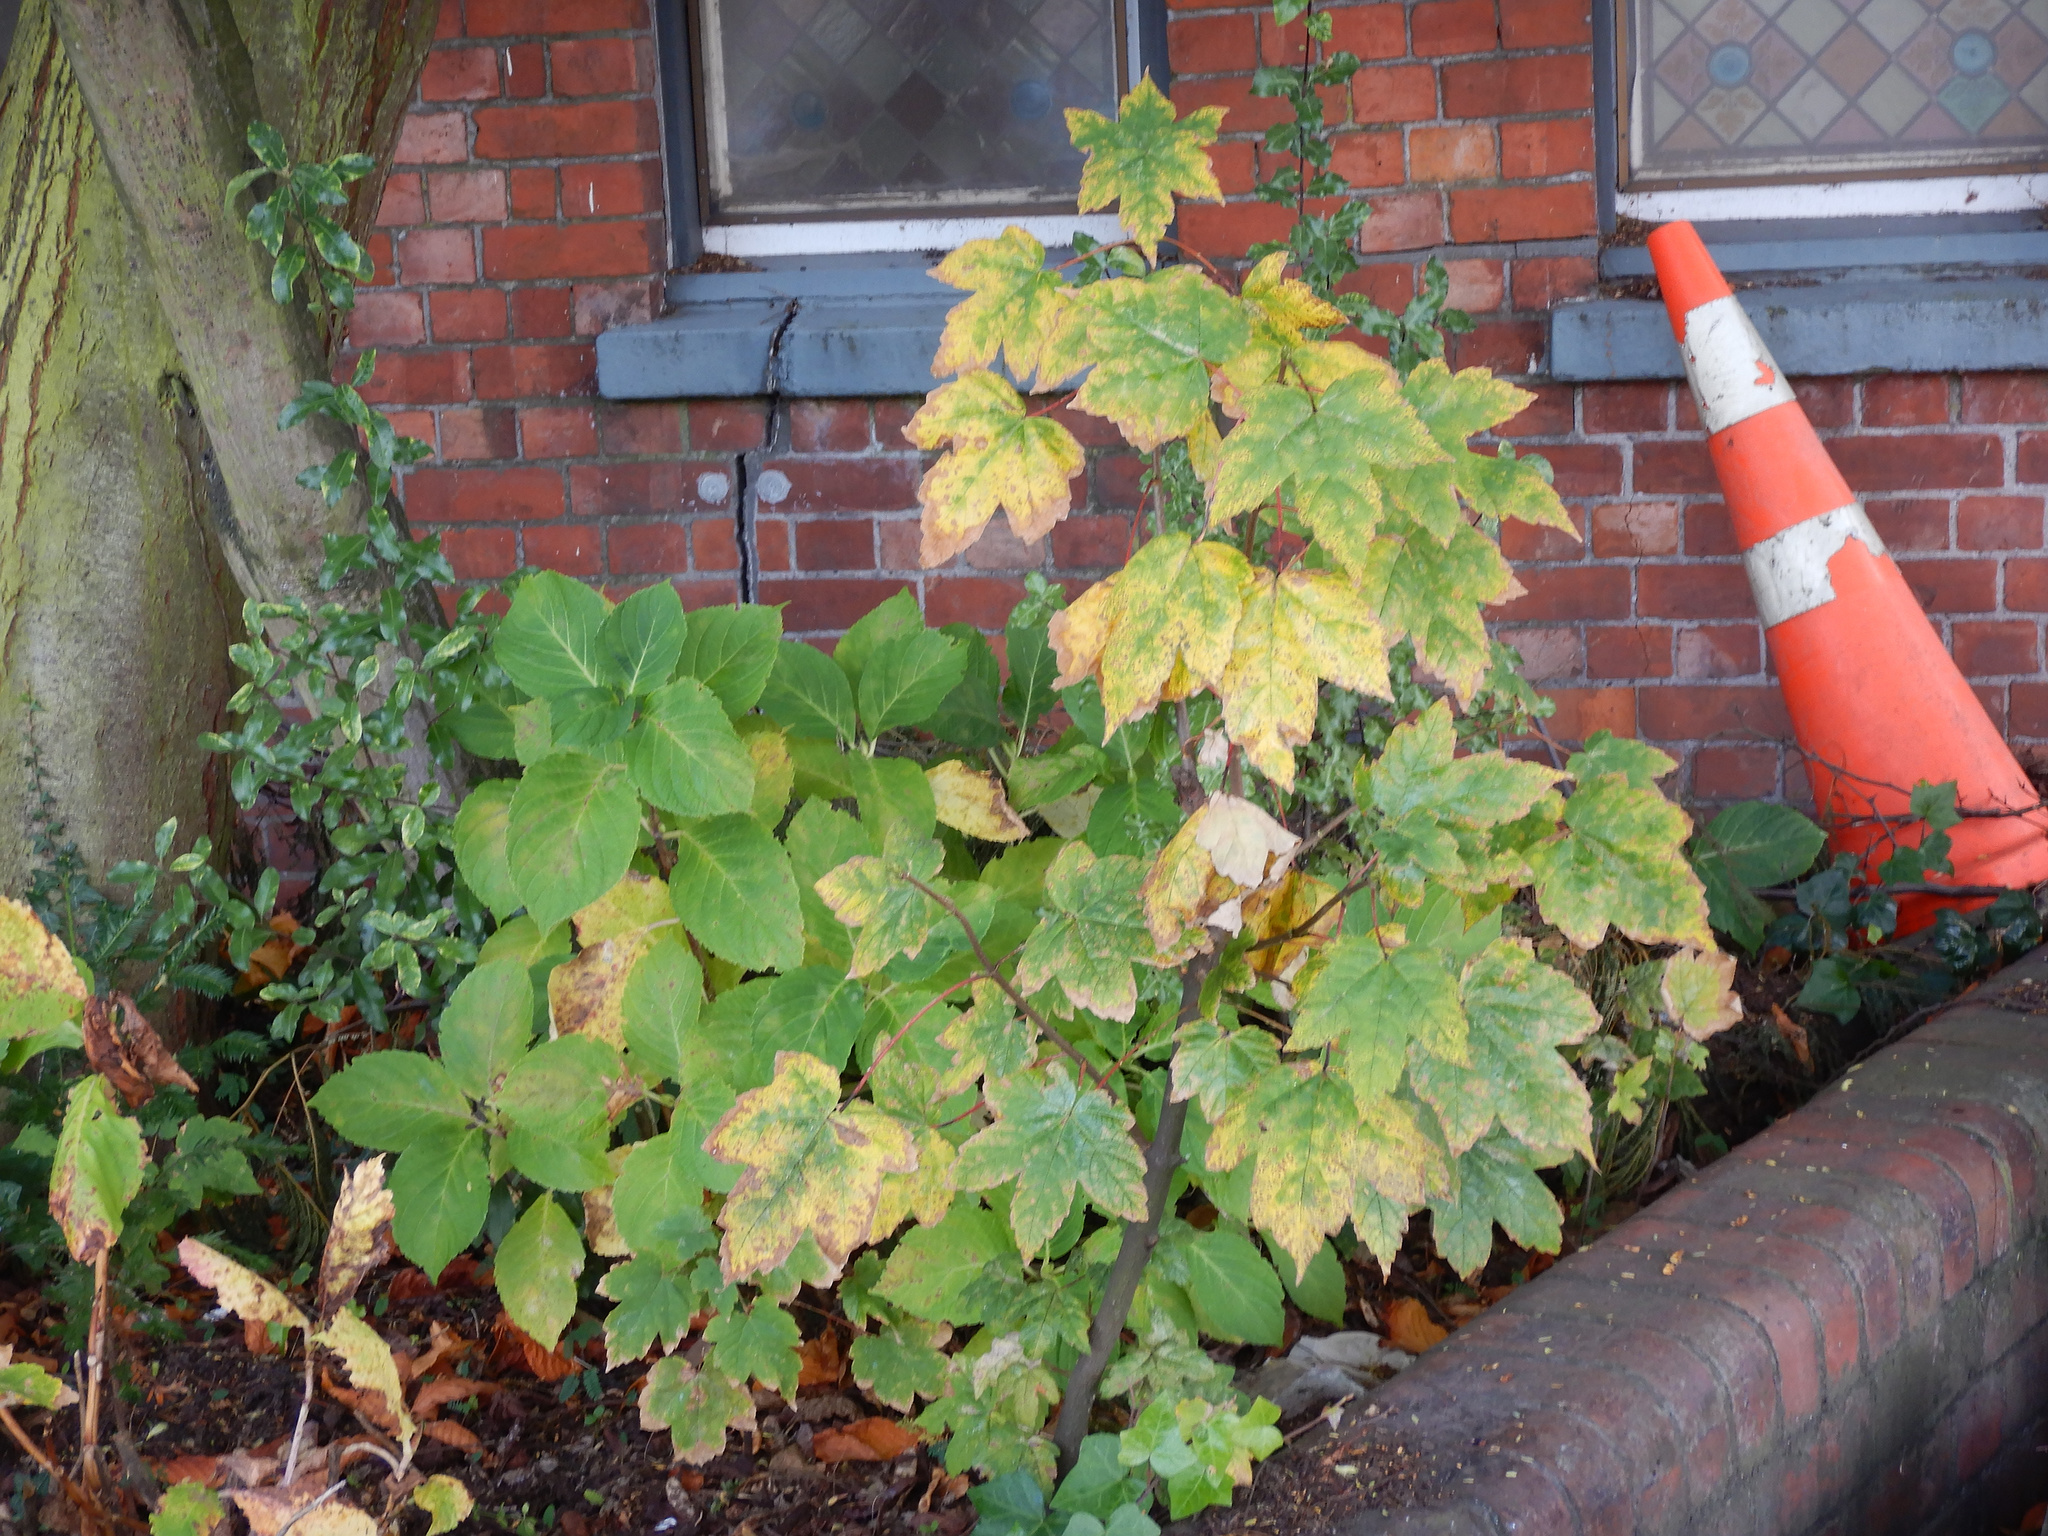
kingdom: Plantae
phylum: Tracheophyta
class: Pinopsida
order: Pinales
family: Taxaceae
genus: Taxus
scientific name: Taxus baccata
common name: Yew
